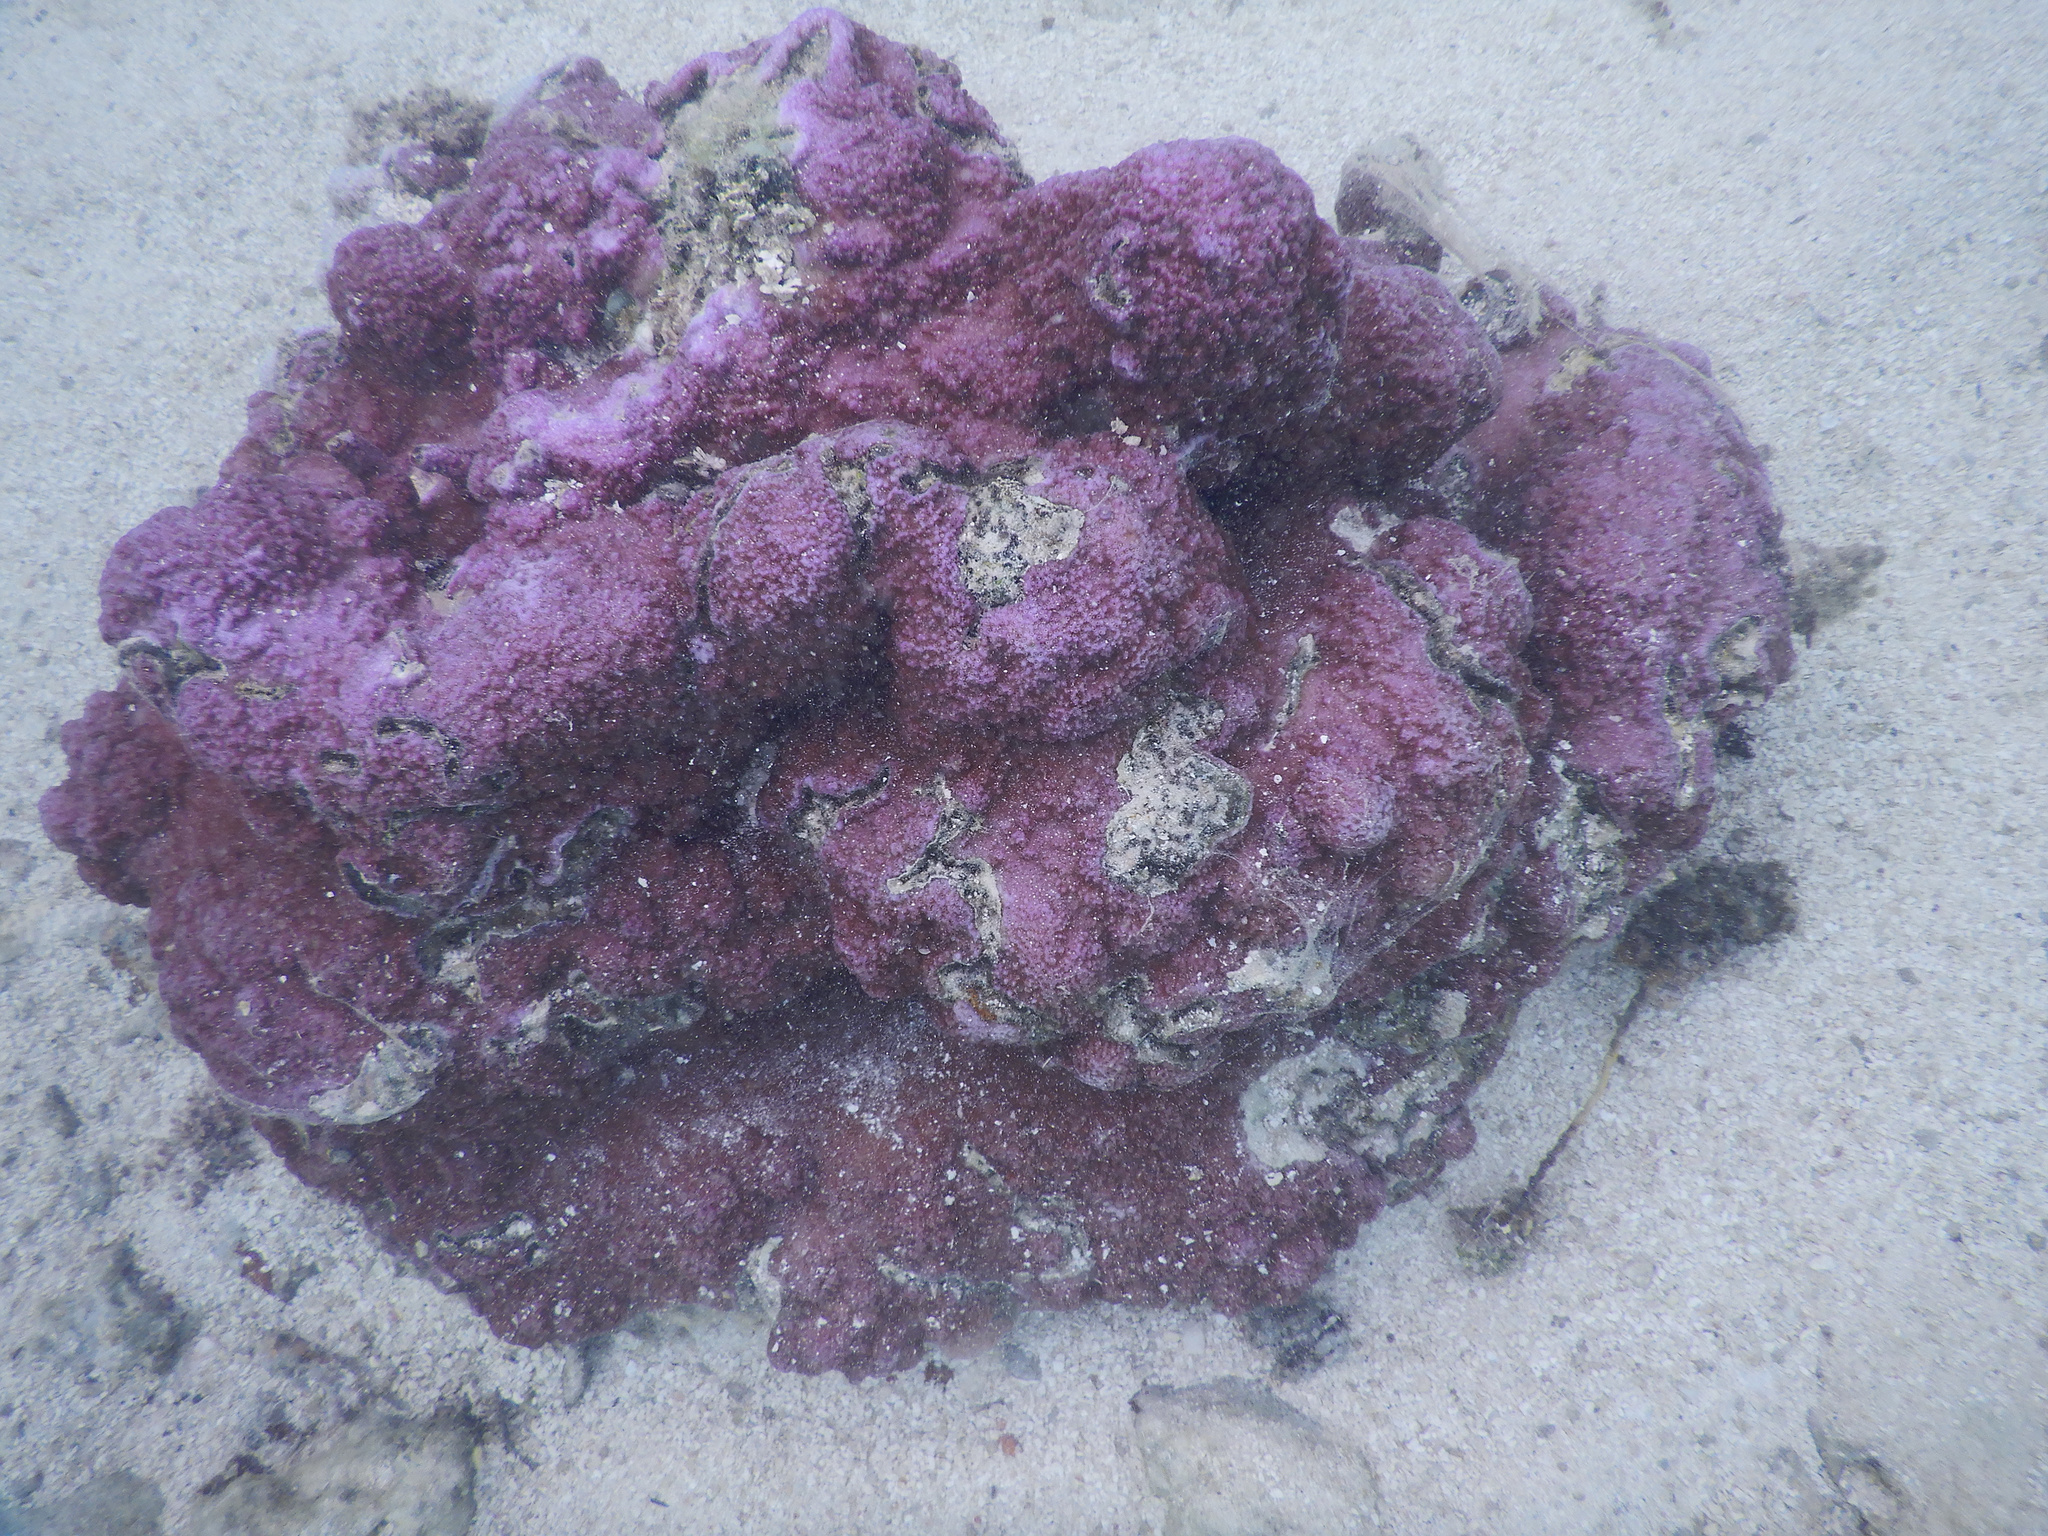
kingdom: Animalia
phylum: Cnidaria
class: Anthozoa
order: Scleractinia
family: Acroporidae
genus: Montipora
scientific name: Montipora flabellata
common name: Pore coral
